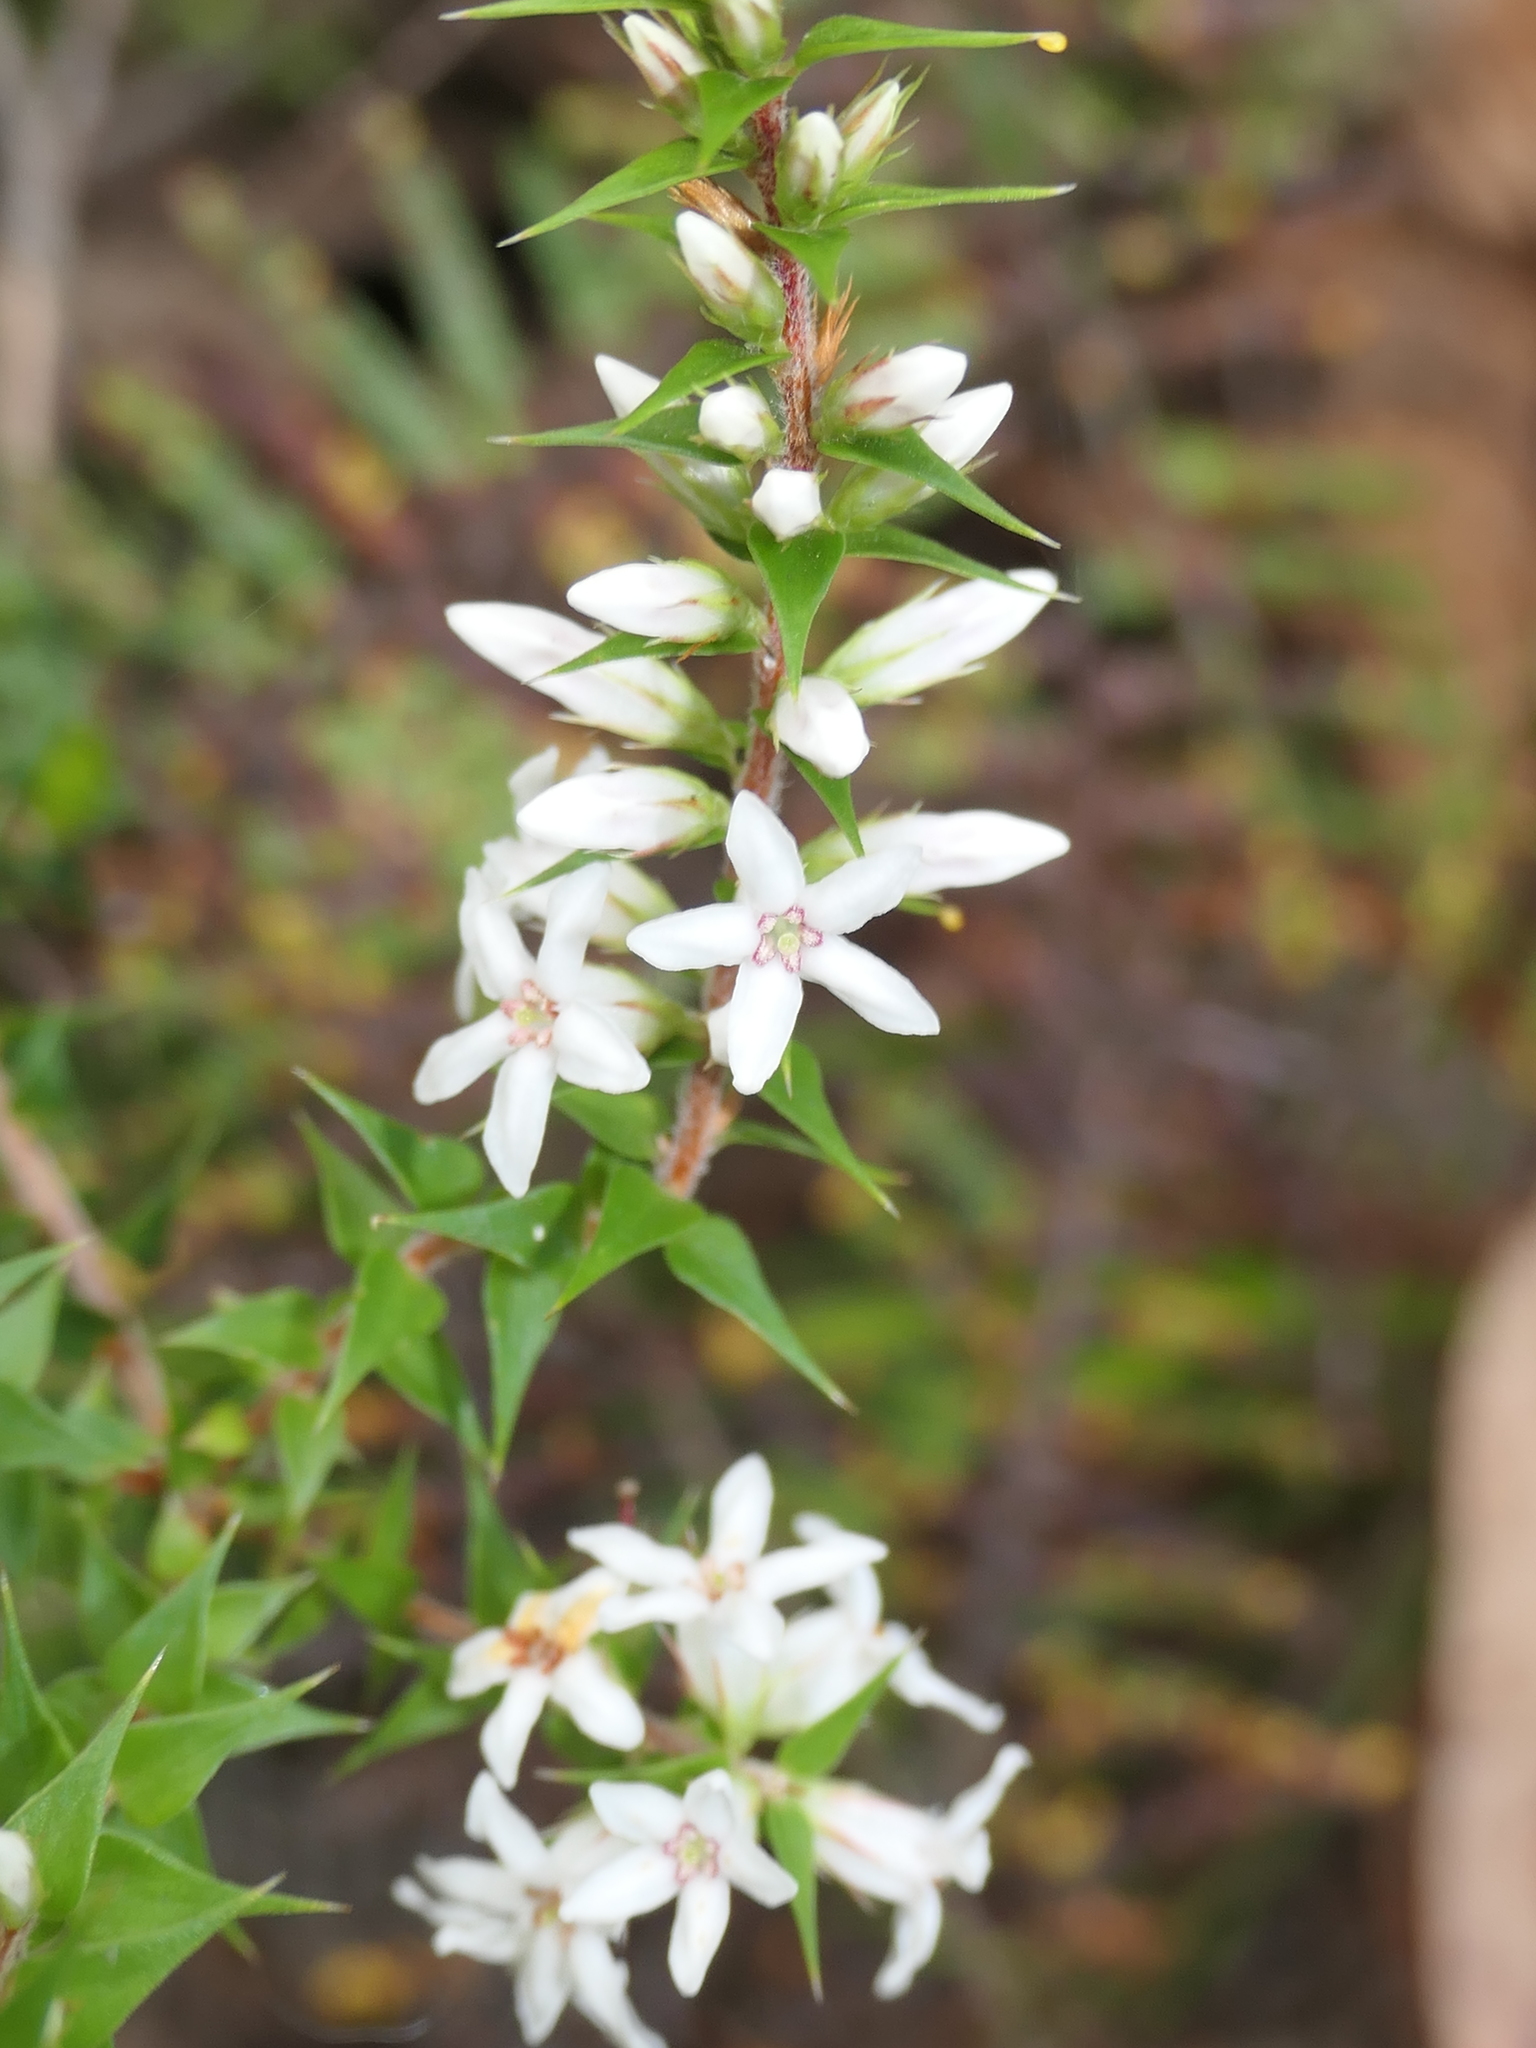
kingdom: Plantae
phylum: Tracheophyta
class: Magnoliopsida
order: Ericales
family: Ericaceae
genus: Epacris
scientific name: Epacris pulchella
